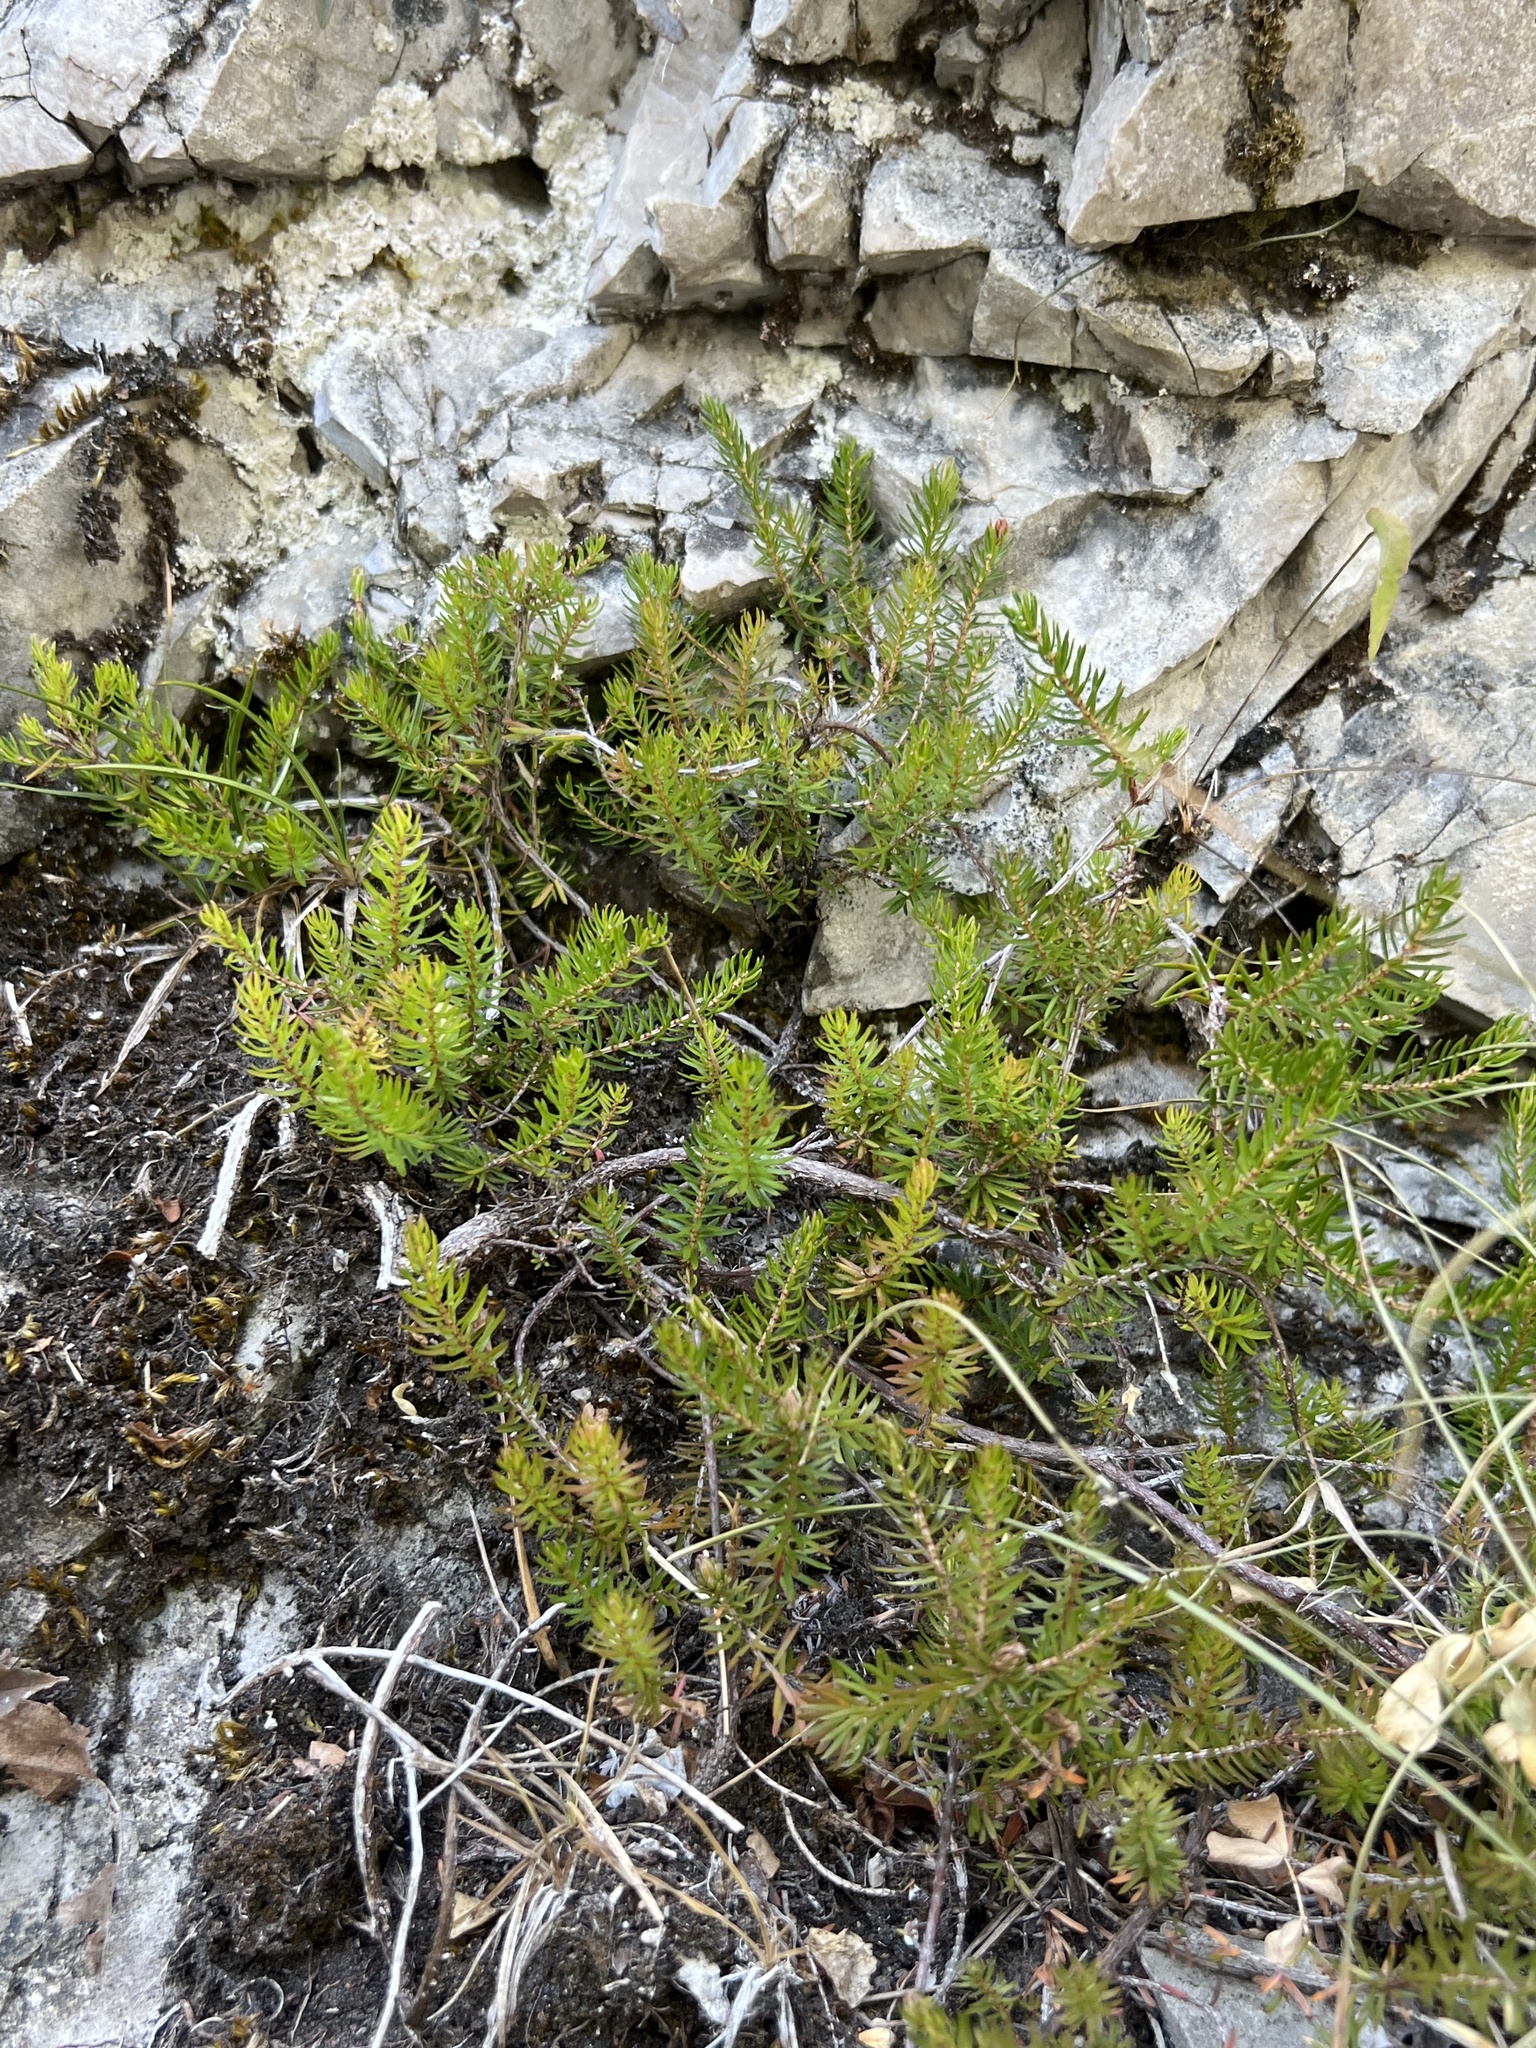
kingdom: Plantae
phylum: Tracheophyta
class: Magnoliopsida
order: Ericales
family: Ericaceae
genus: Erica
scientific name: Erica carnea
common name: Winter heath
